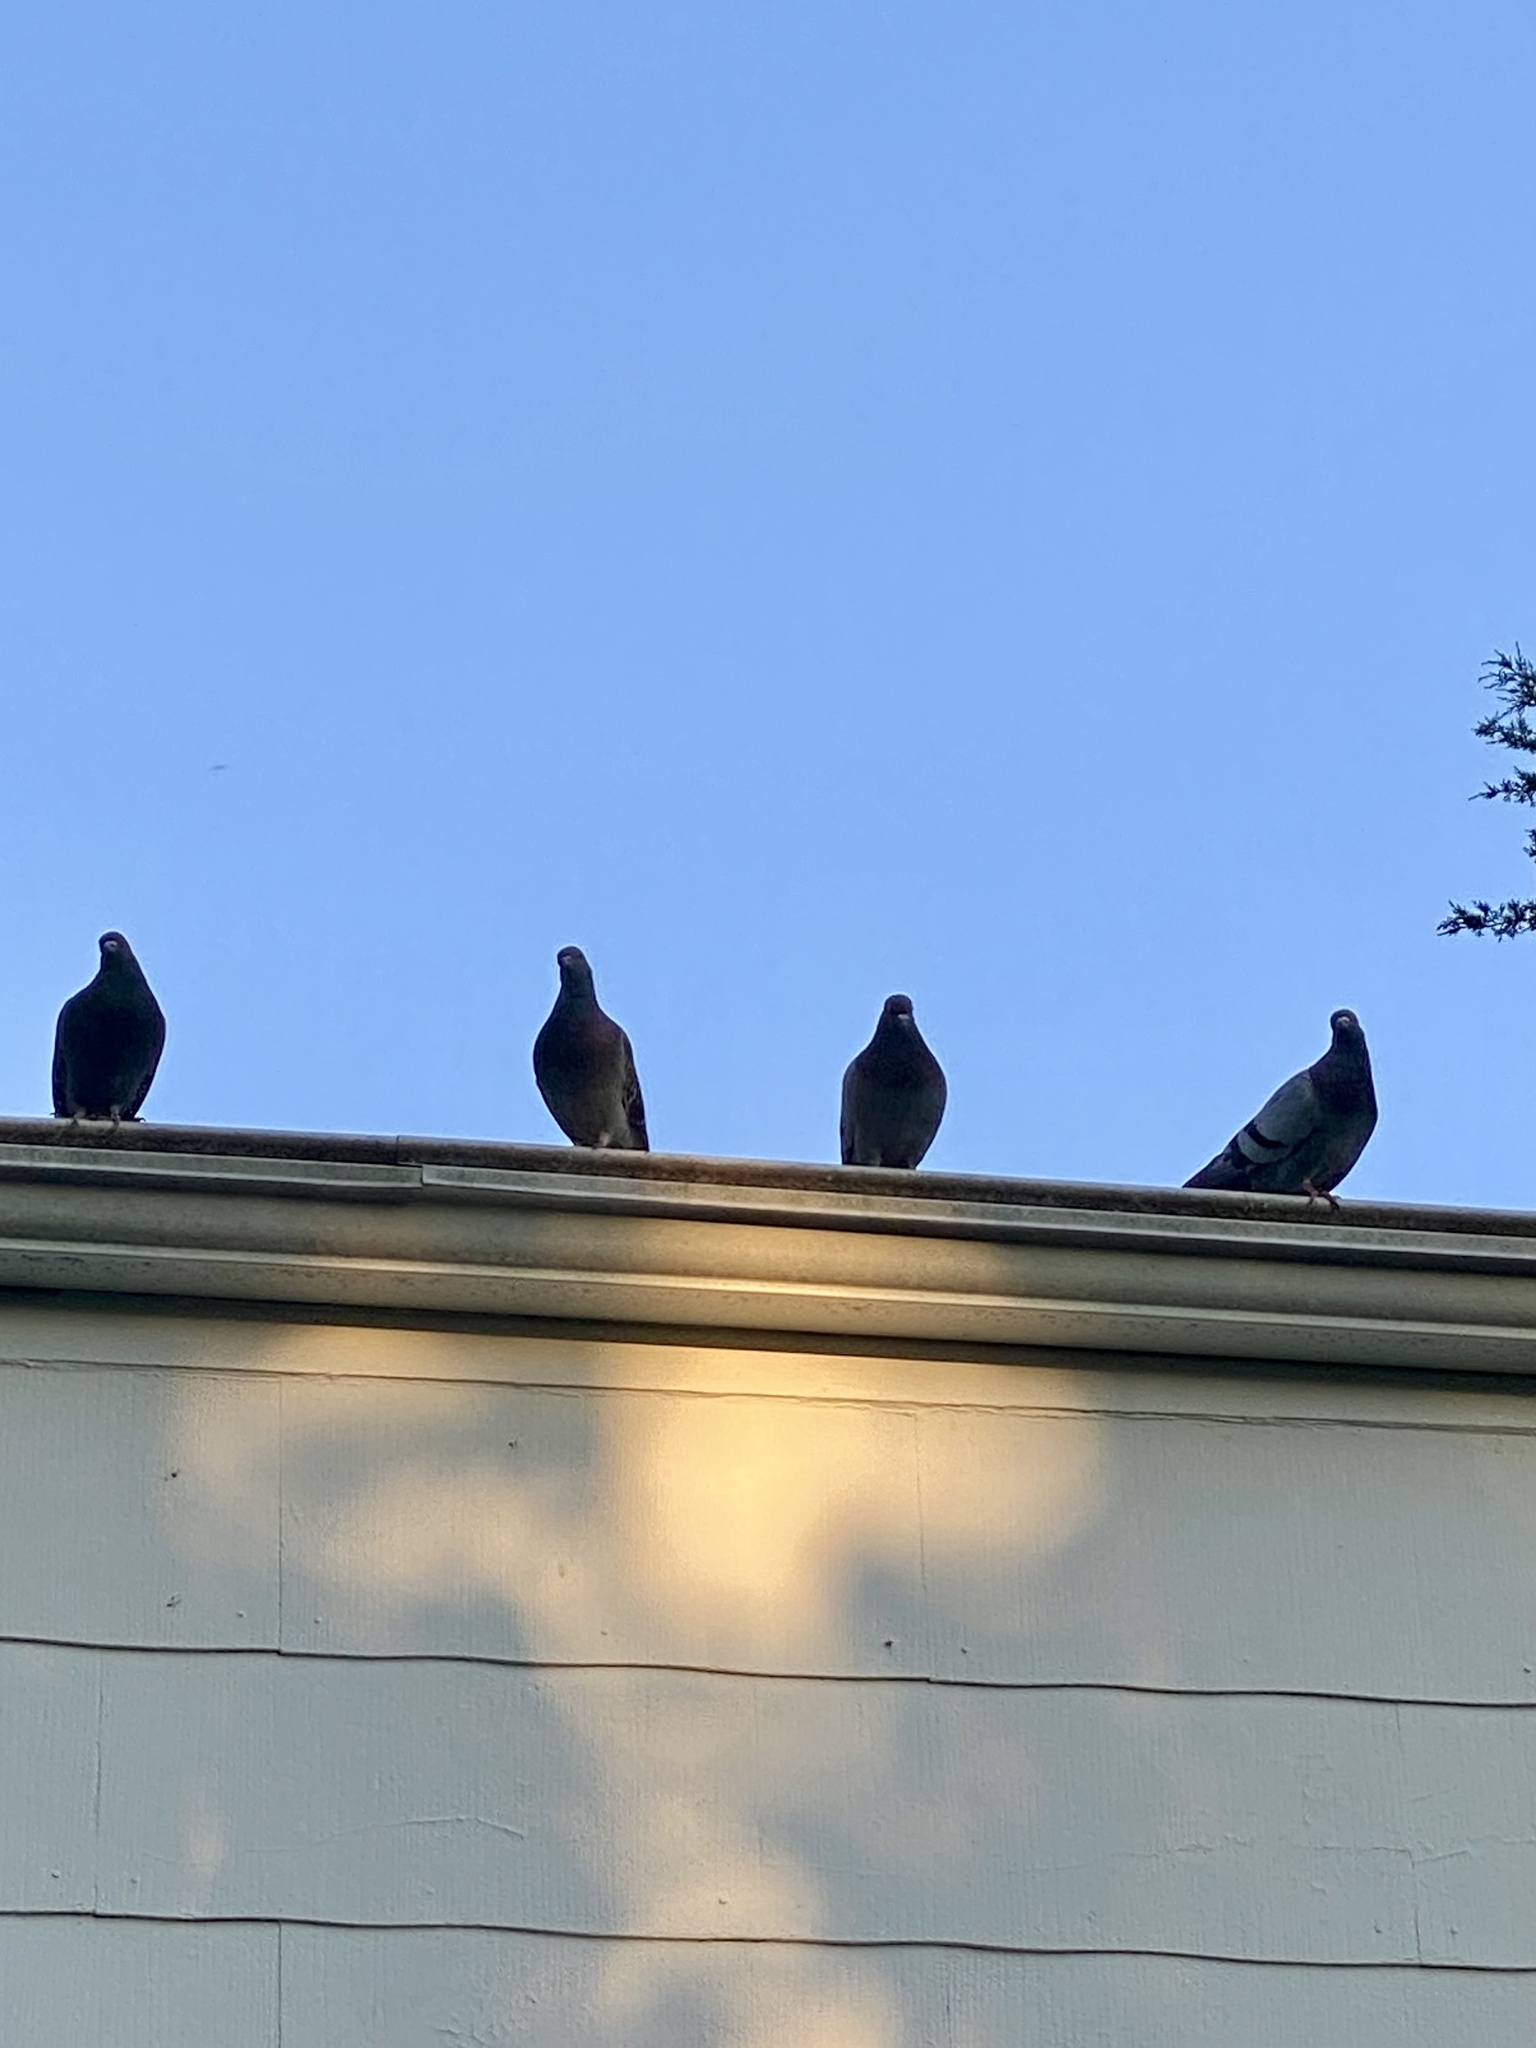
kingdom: Animalia
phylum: Chordata
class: Aves
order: Columbiformes
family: Columbidae
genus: Columba
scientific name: Columba livia
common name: Rock pigeon
